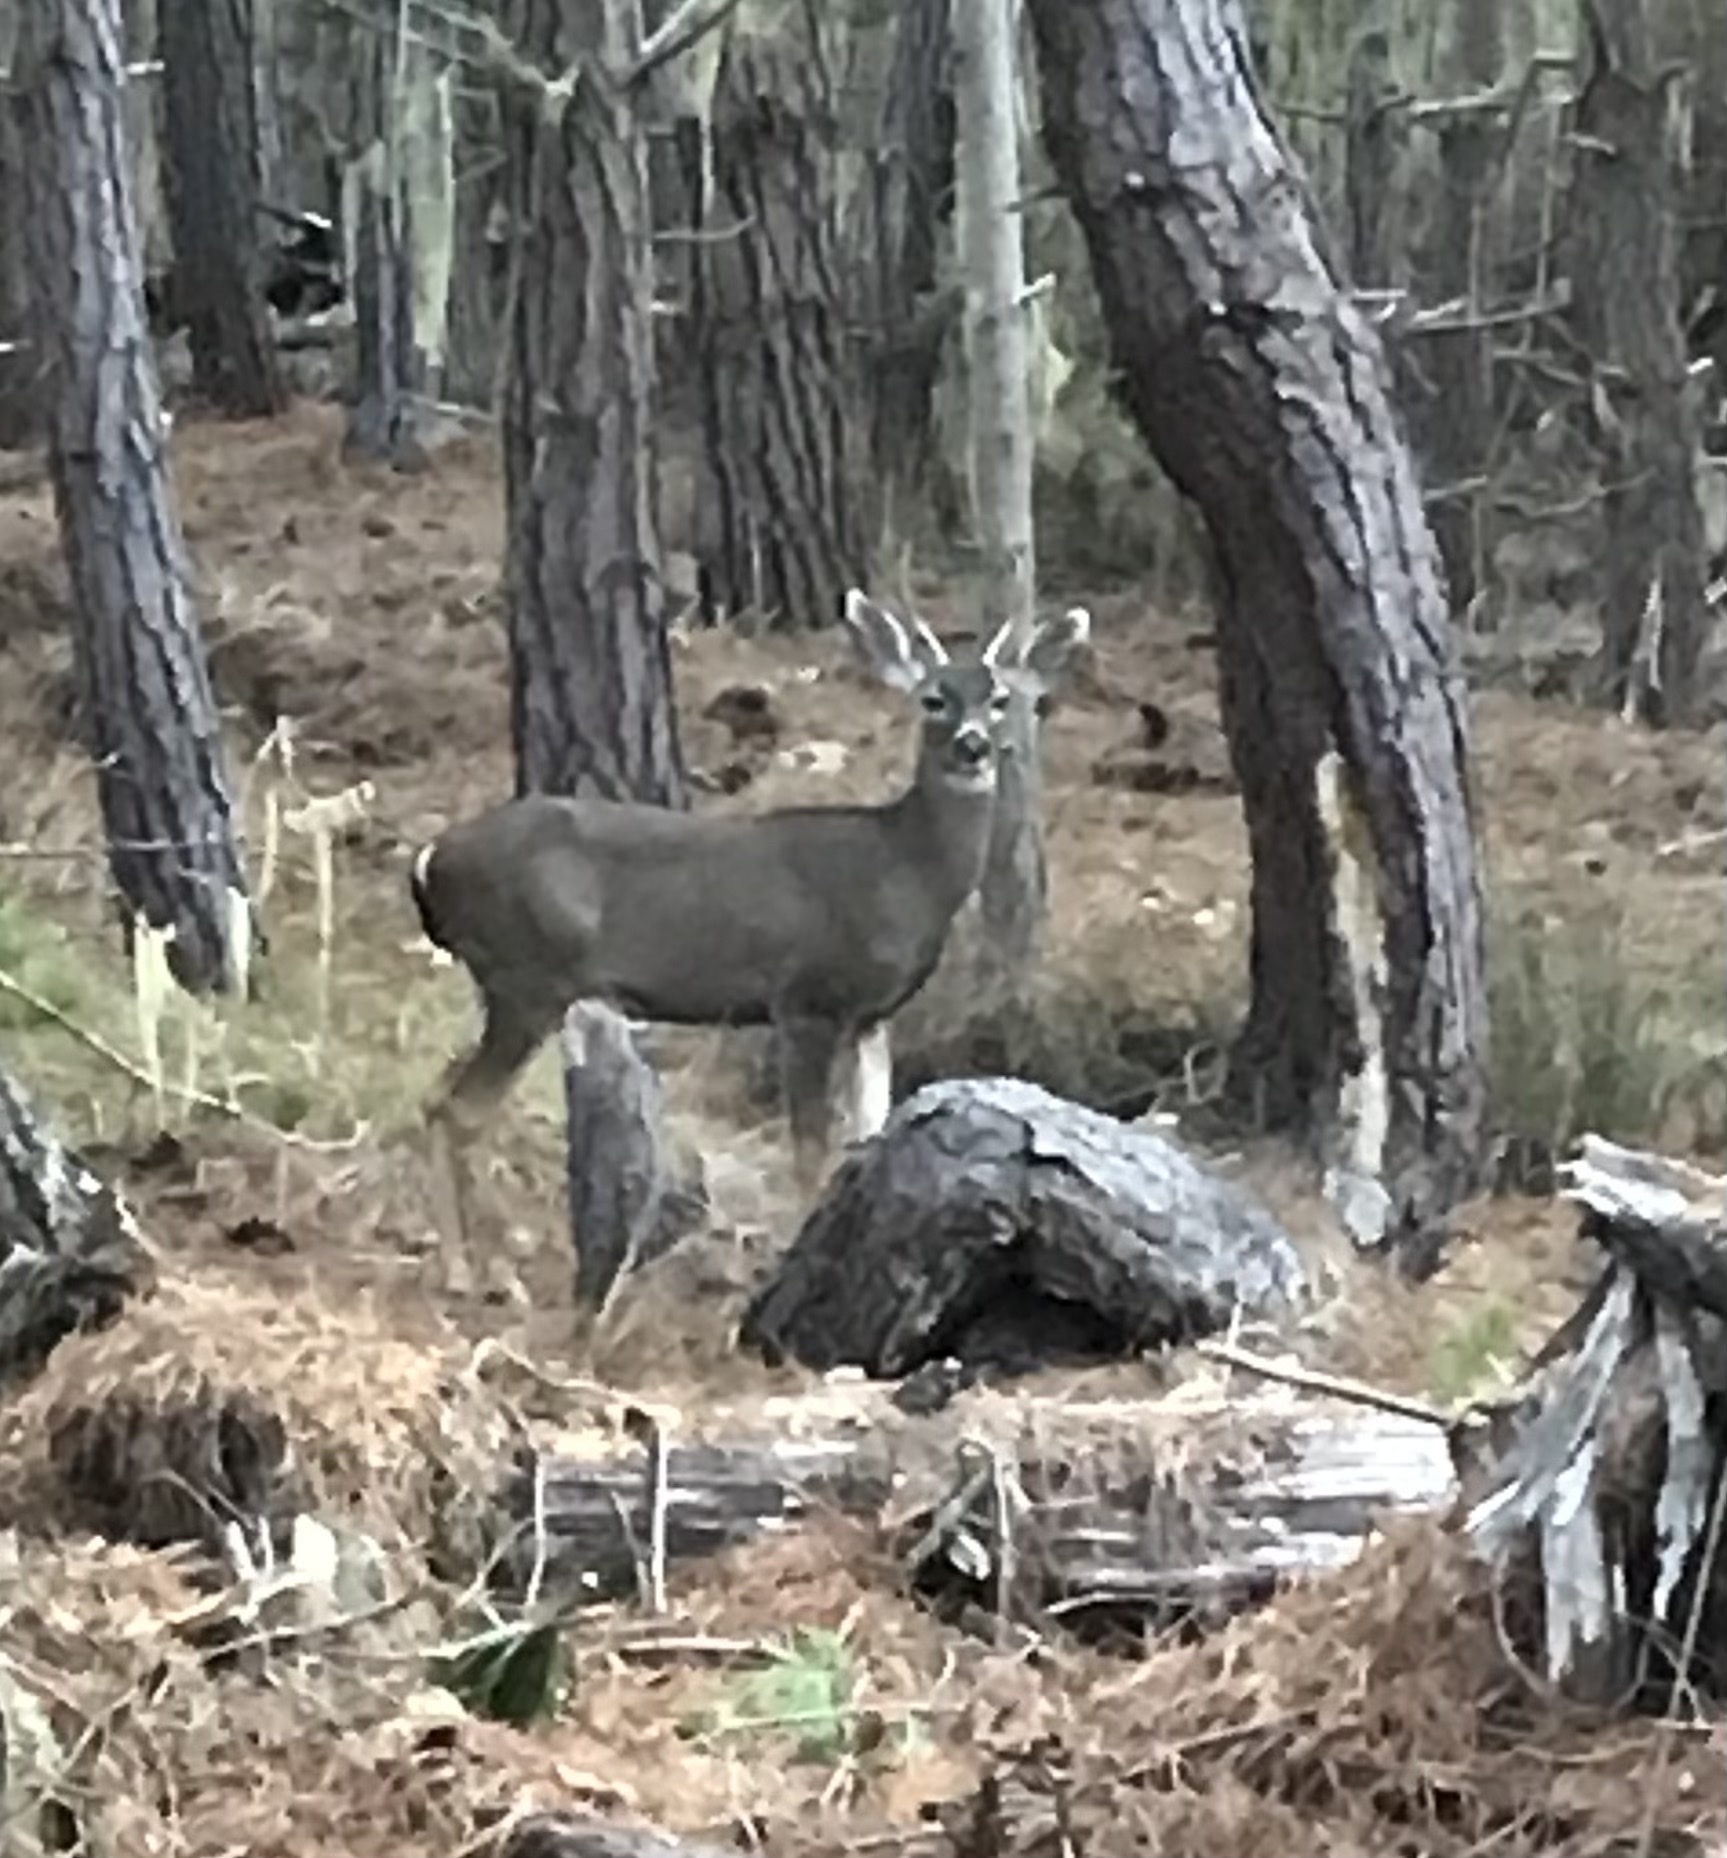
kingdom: Animalia
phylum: Chordata
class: Mammalia
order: Artiodactyla
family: Cervidae
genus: Odocoileus
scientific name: Odocoileus hemionus
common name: Mule deer
